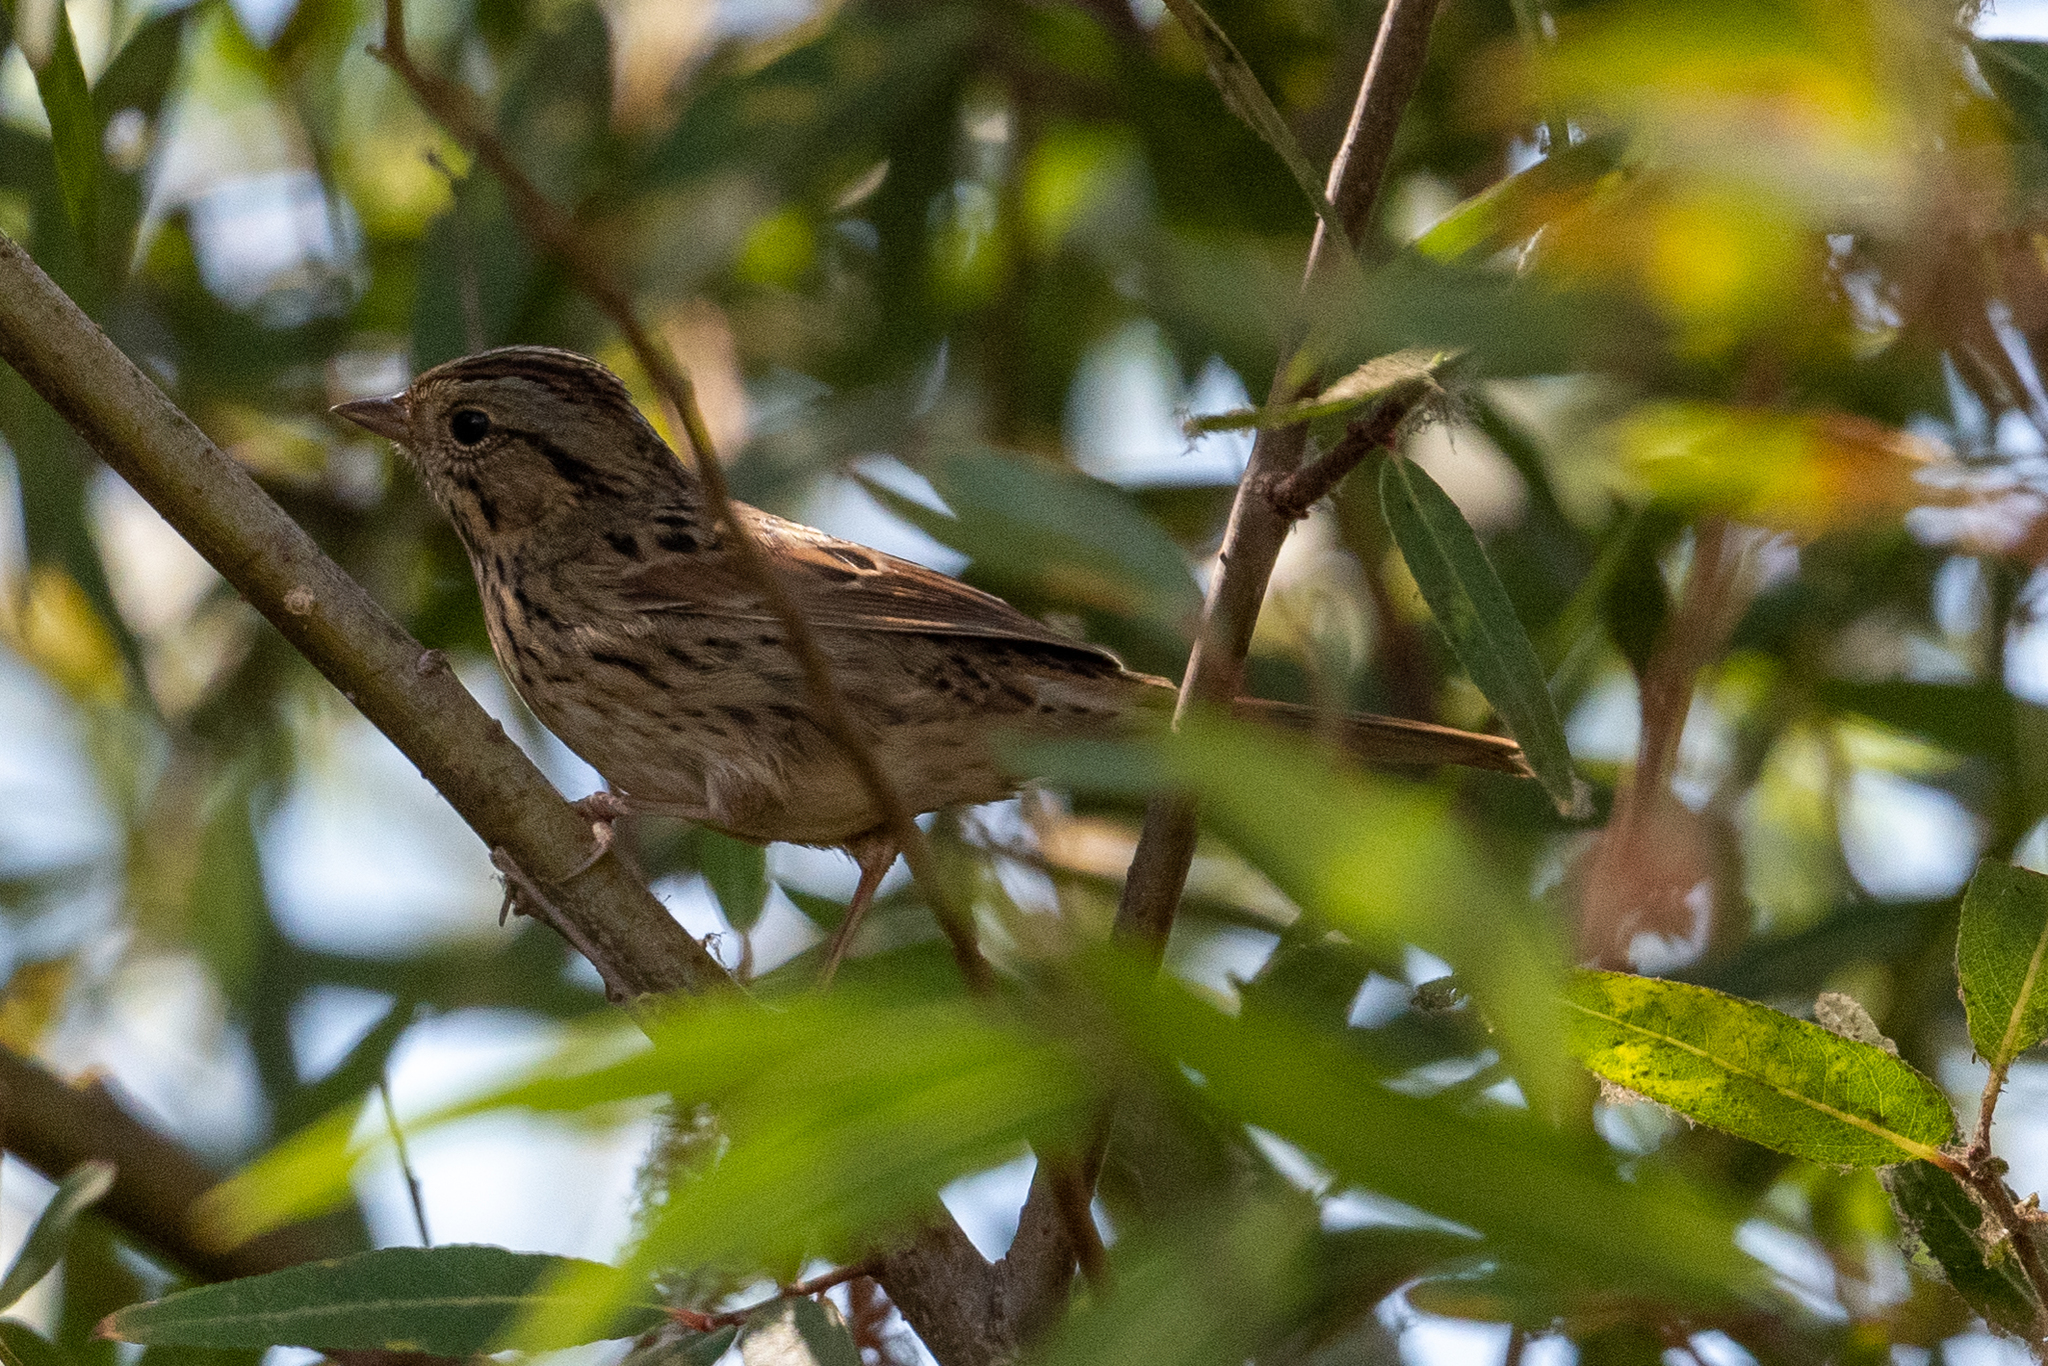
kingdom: Animalia
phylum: Chordata
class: Aves
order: Passeriformes
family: Passerellidae
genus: Melospiza
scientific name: Melospiza lincolnii
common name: Lincoln's sparrow
